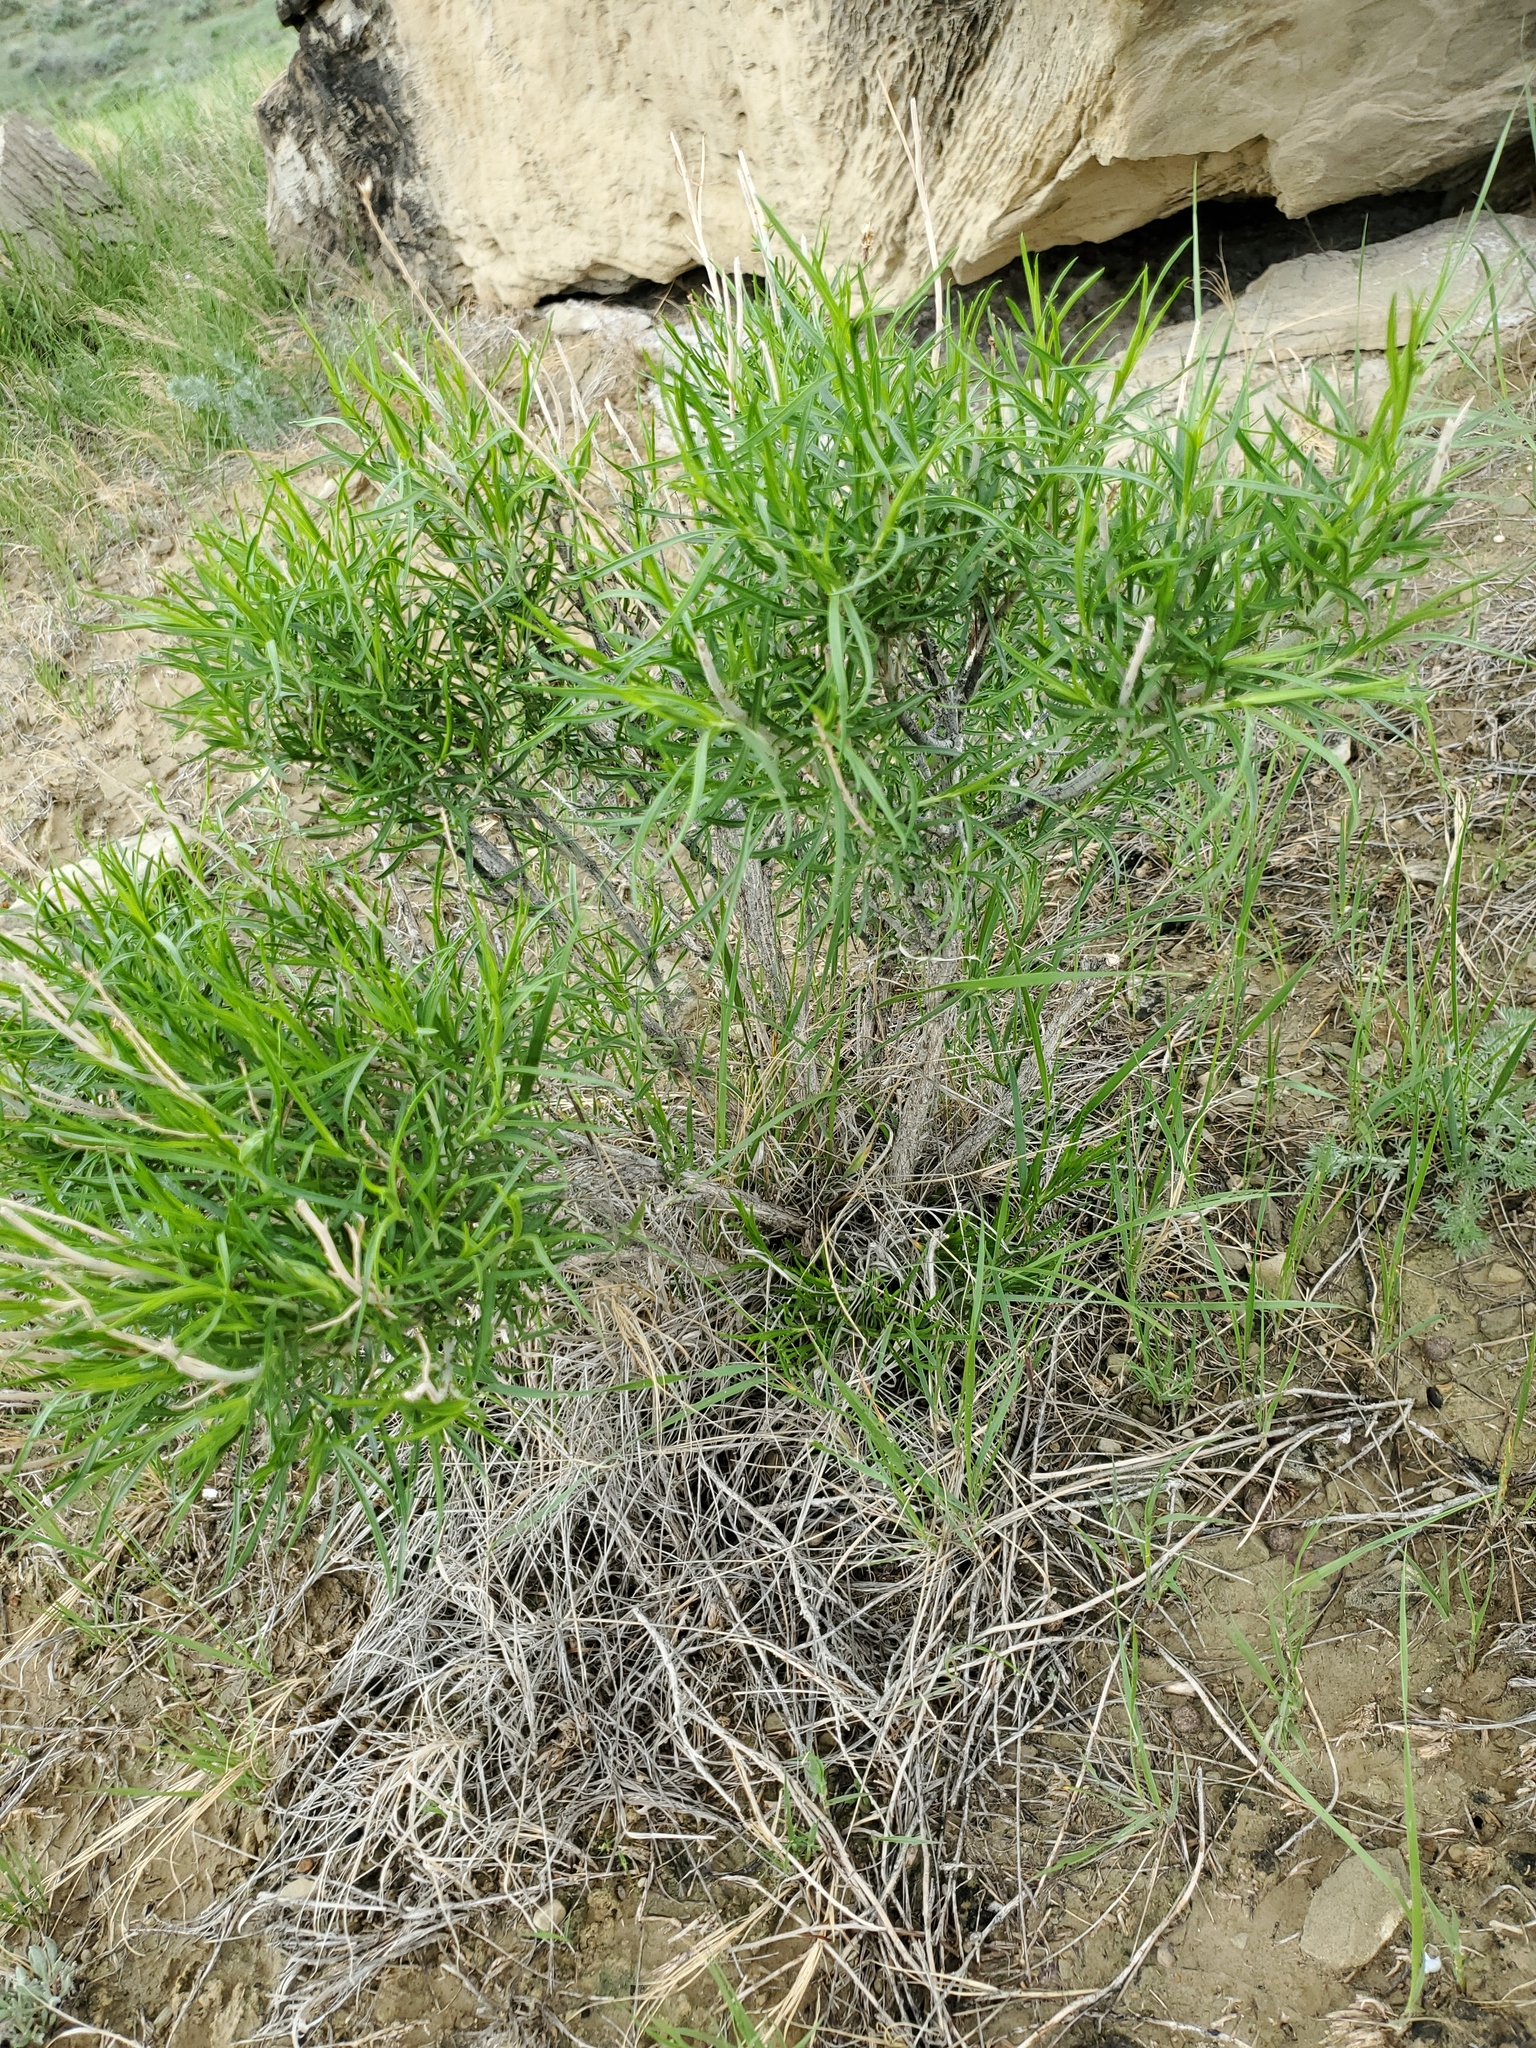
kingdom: Plantae
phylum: Tracheophyta
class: Magnoliopsida
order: Asterales
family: Asteraceae
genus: Ericameria
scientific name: Ericameria nauseosa
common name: Rubber rabbitbrush
